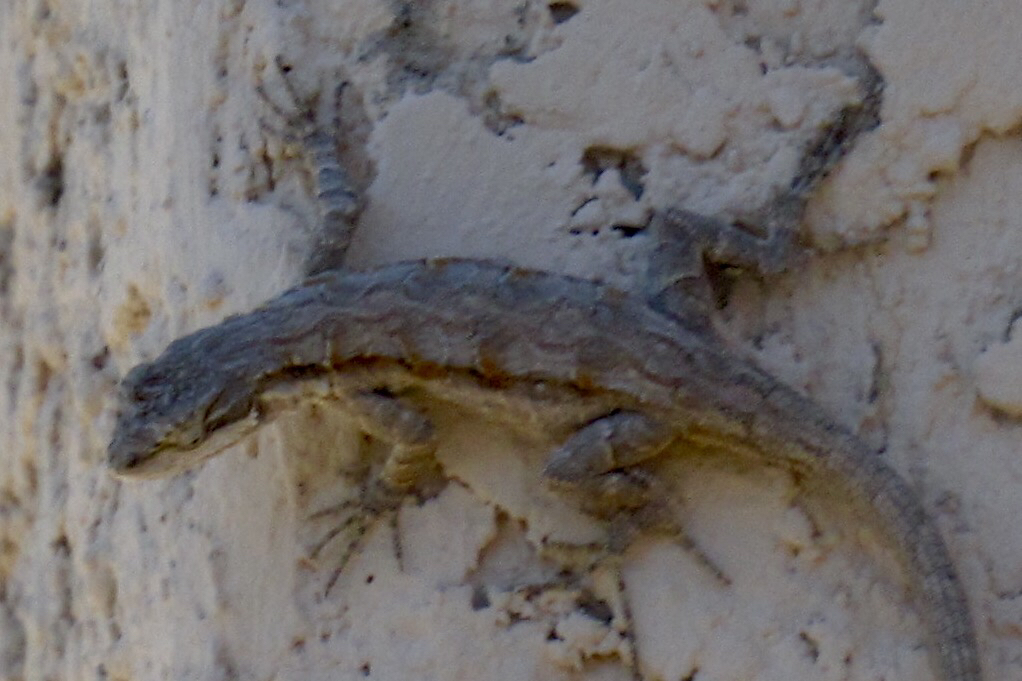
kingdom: Animalia
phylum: Chordata
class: Squamata
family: Phrynosomatidae
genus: Urosaurus
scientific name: Urosaurus ornatus
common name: Ornate tree lizard
